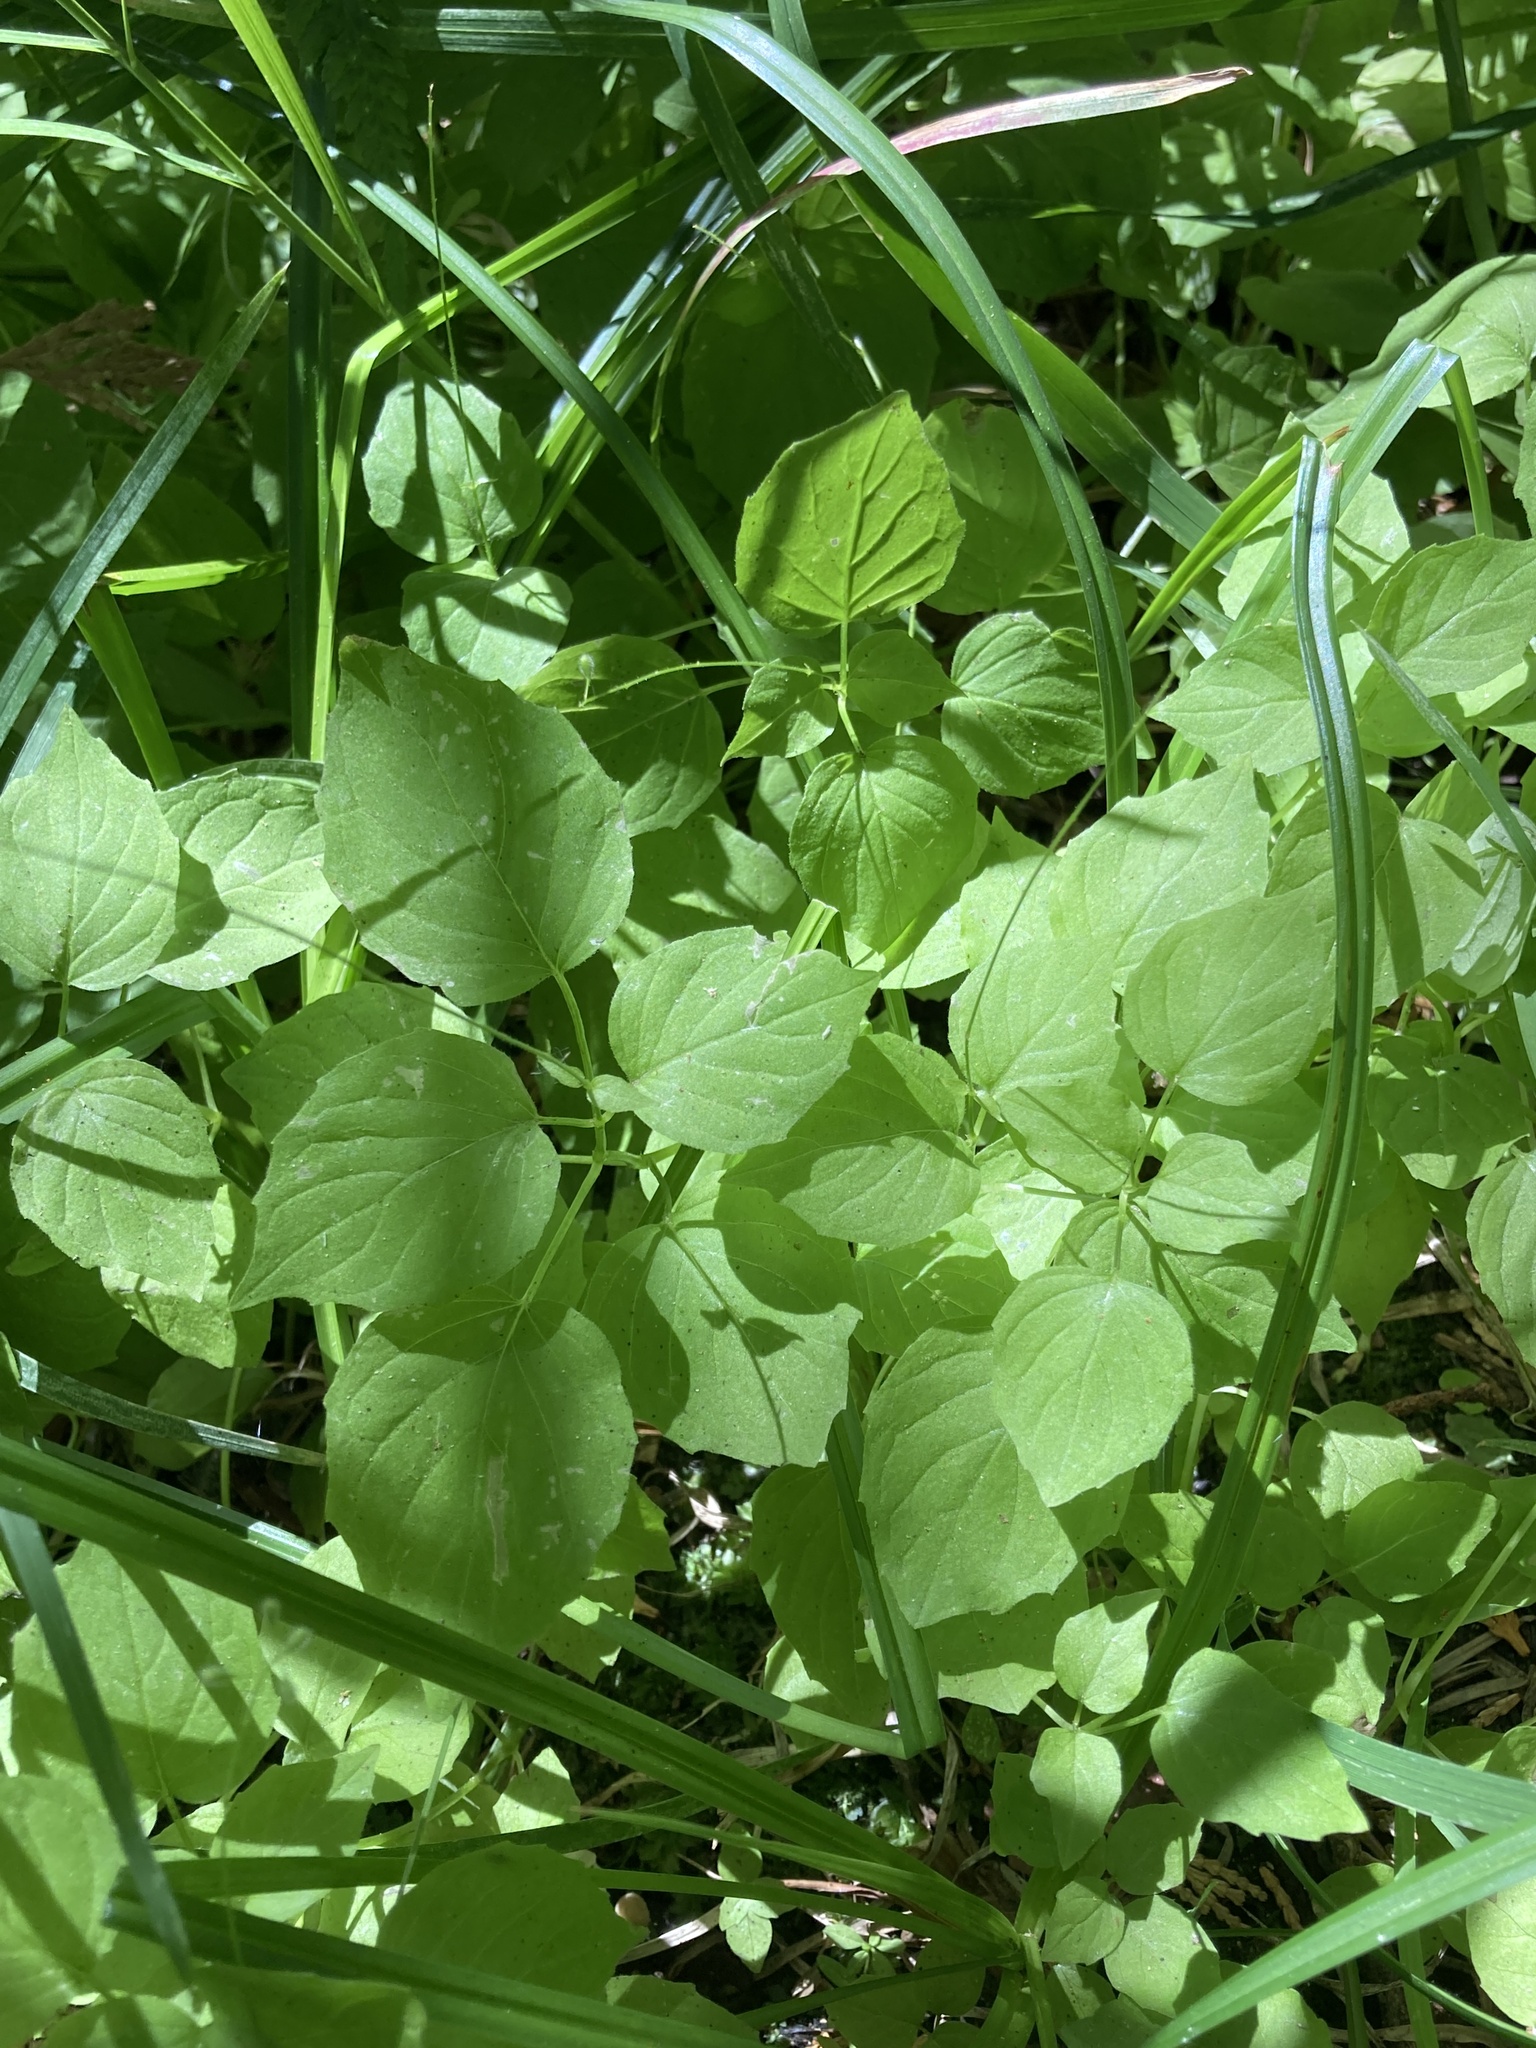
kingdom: Plantae
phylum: Tracheophyta
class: Magnoliopsida
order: Myrtales
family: Onagraceae
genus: Circaea
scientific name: Circaea alpina
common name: Alpine enchanter's-nightshade
